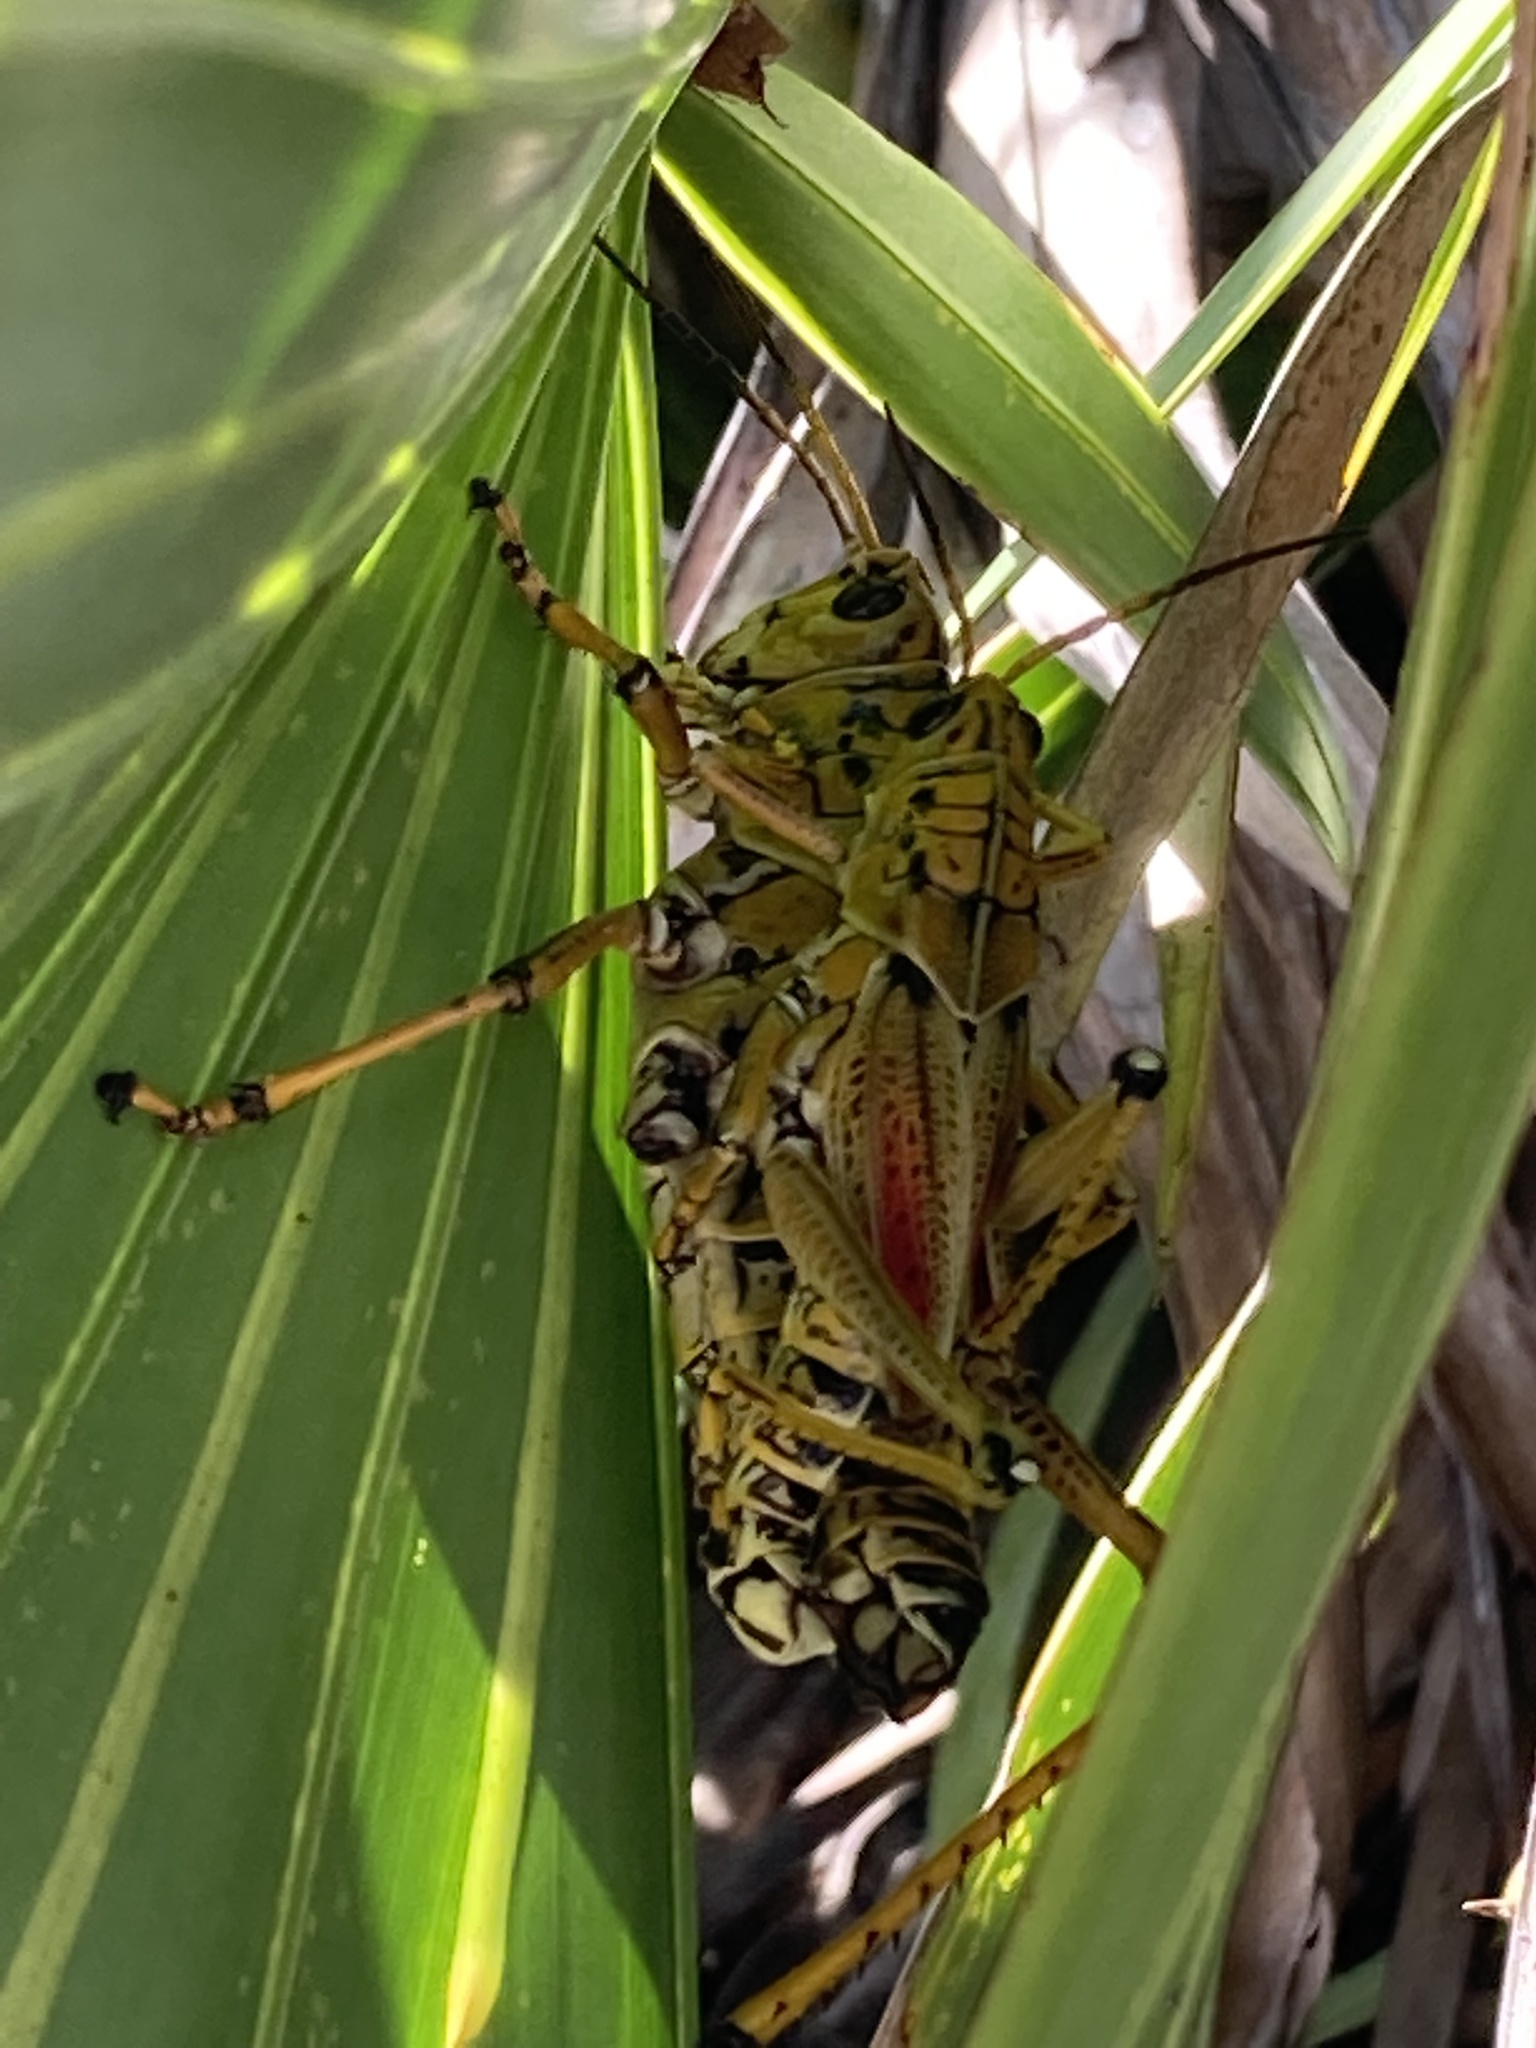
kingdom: Animalia
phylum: Arthropoda
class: Insecta
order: Orthoptera
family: Romaleidae
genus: Romalea
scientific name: Romalea microptera
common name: Eastern lubber grasshopper
